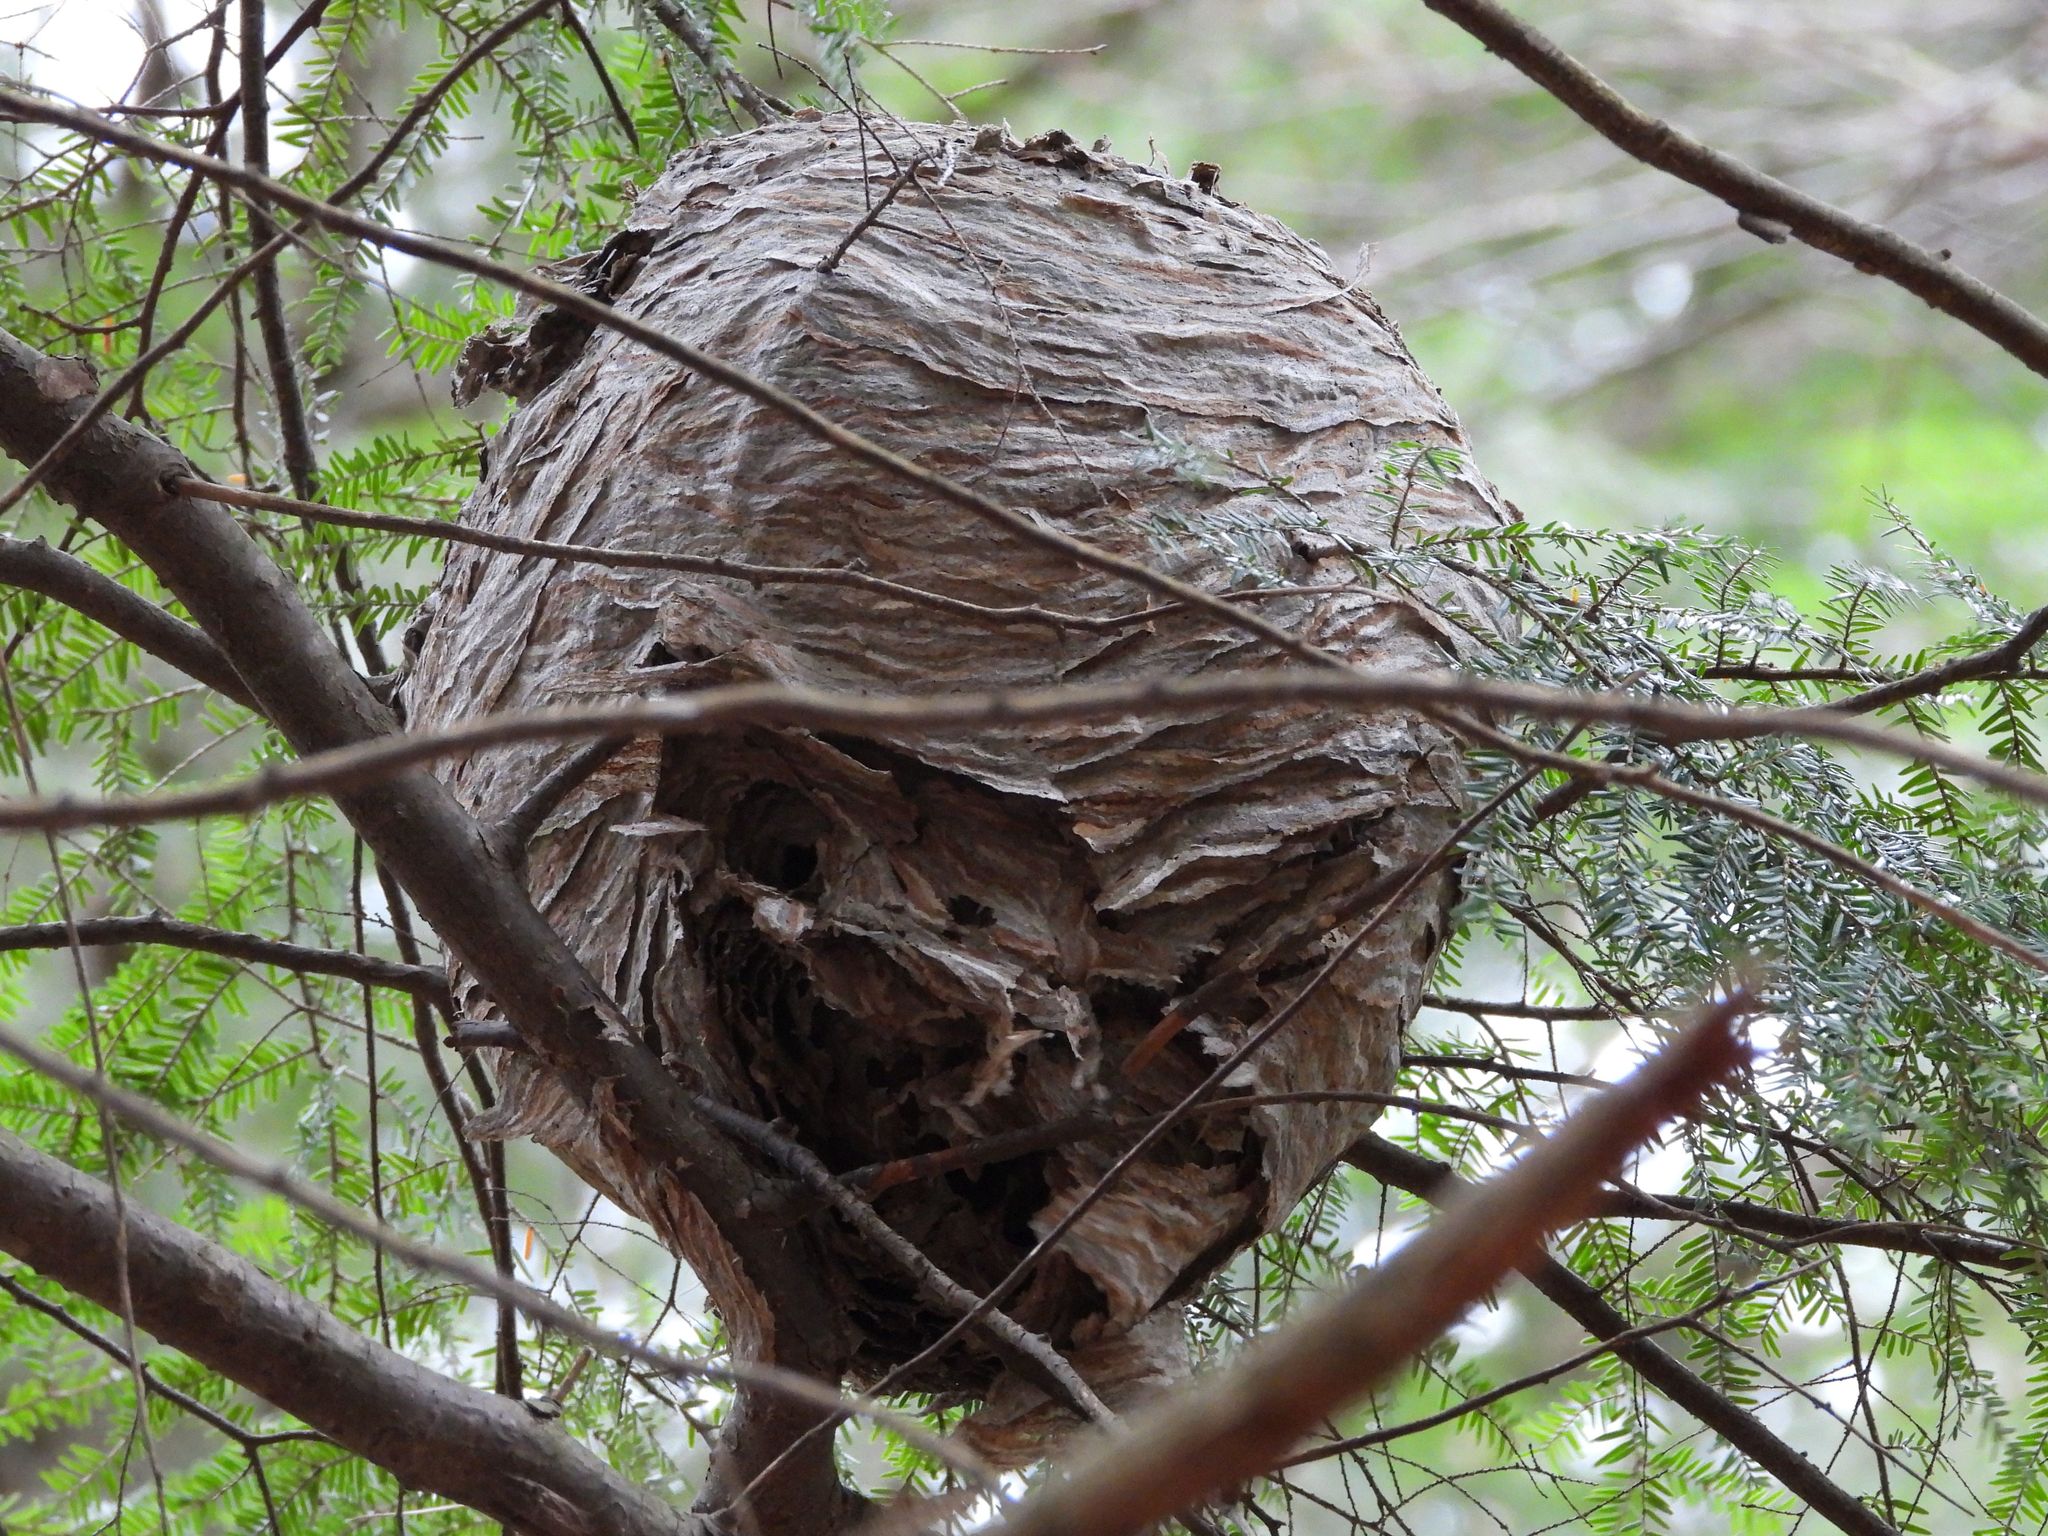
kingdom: Animalia
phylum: Arthropoda
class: Insecta
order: Hymenoptera
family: Vespidae
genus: Dolichovespula
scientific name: Dolichovespula
